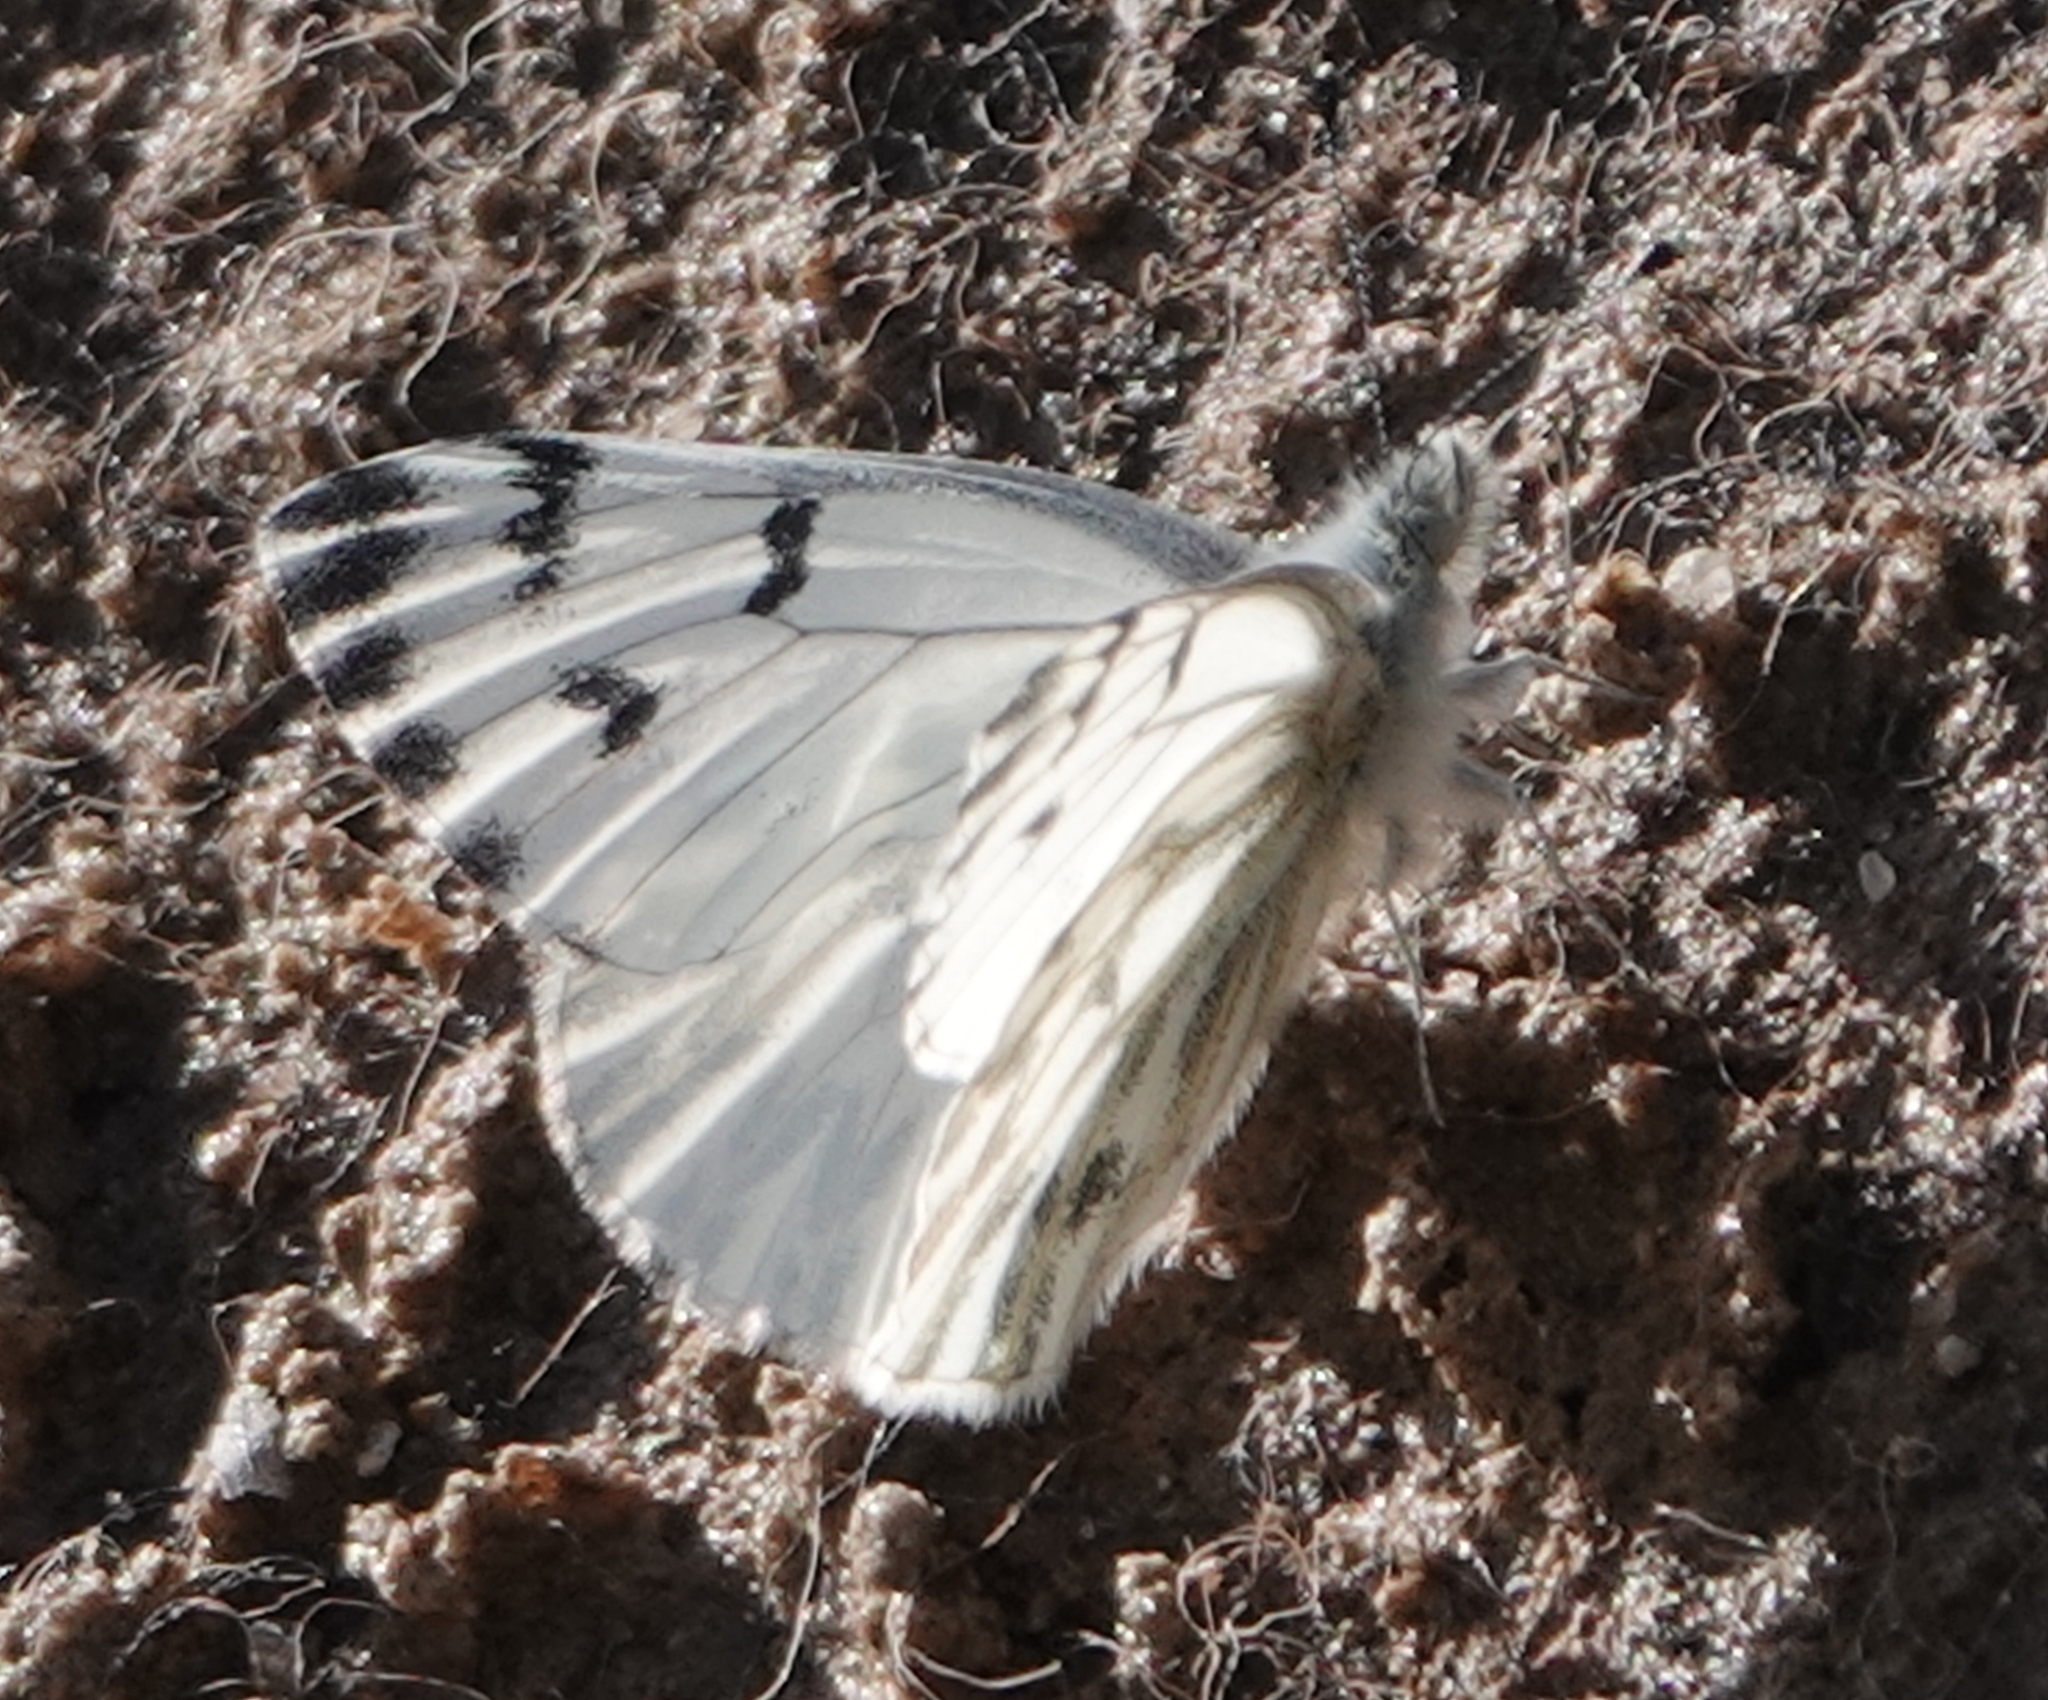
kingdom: Animalia
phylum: Arthropoda
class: Insecta
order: Lepidoptera
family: Pieridae
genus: Pontia
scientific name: Pontia sisymbrii
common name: California white
